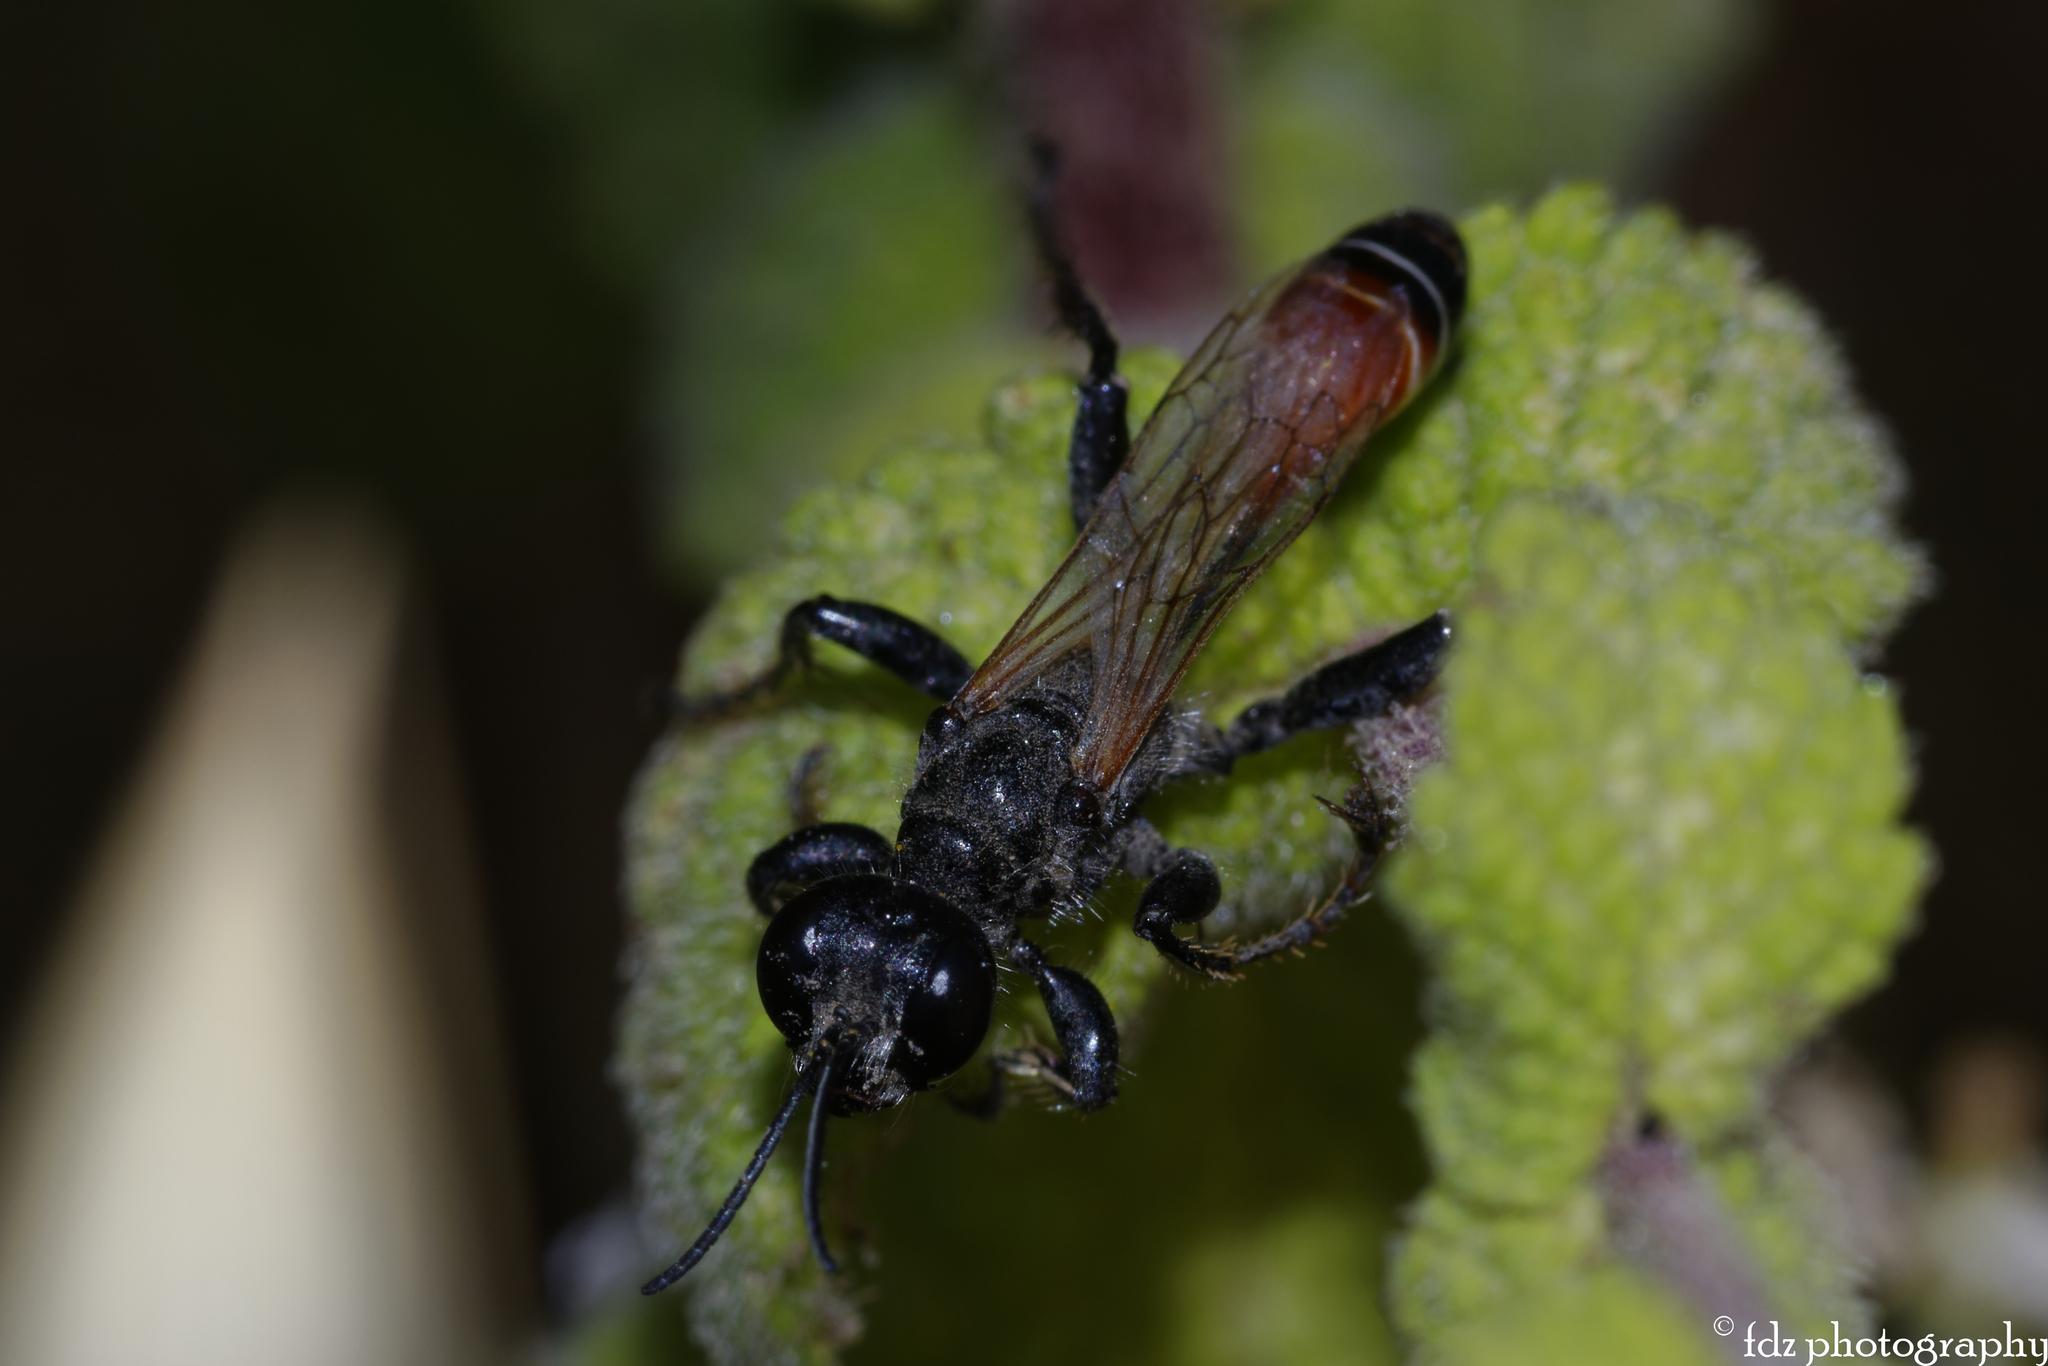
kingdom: Animalia
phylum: Arthropoda
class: Insecta
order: Hymenoptera
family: Sphecidae
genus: Prionyx
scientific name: Prionyx kirbii
